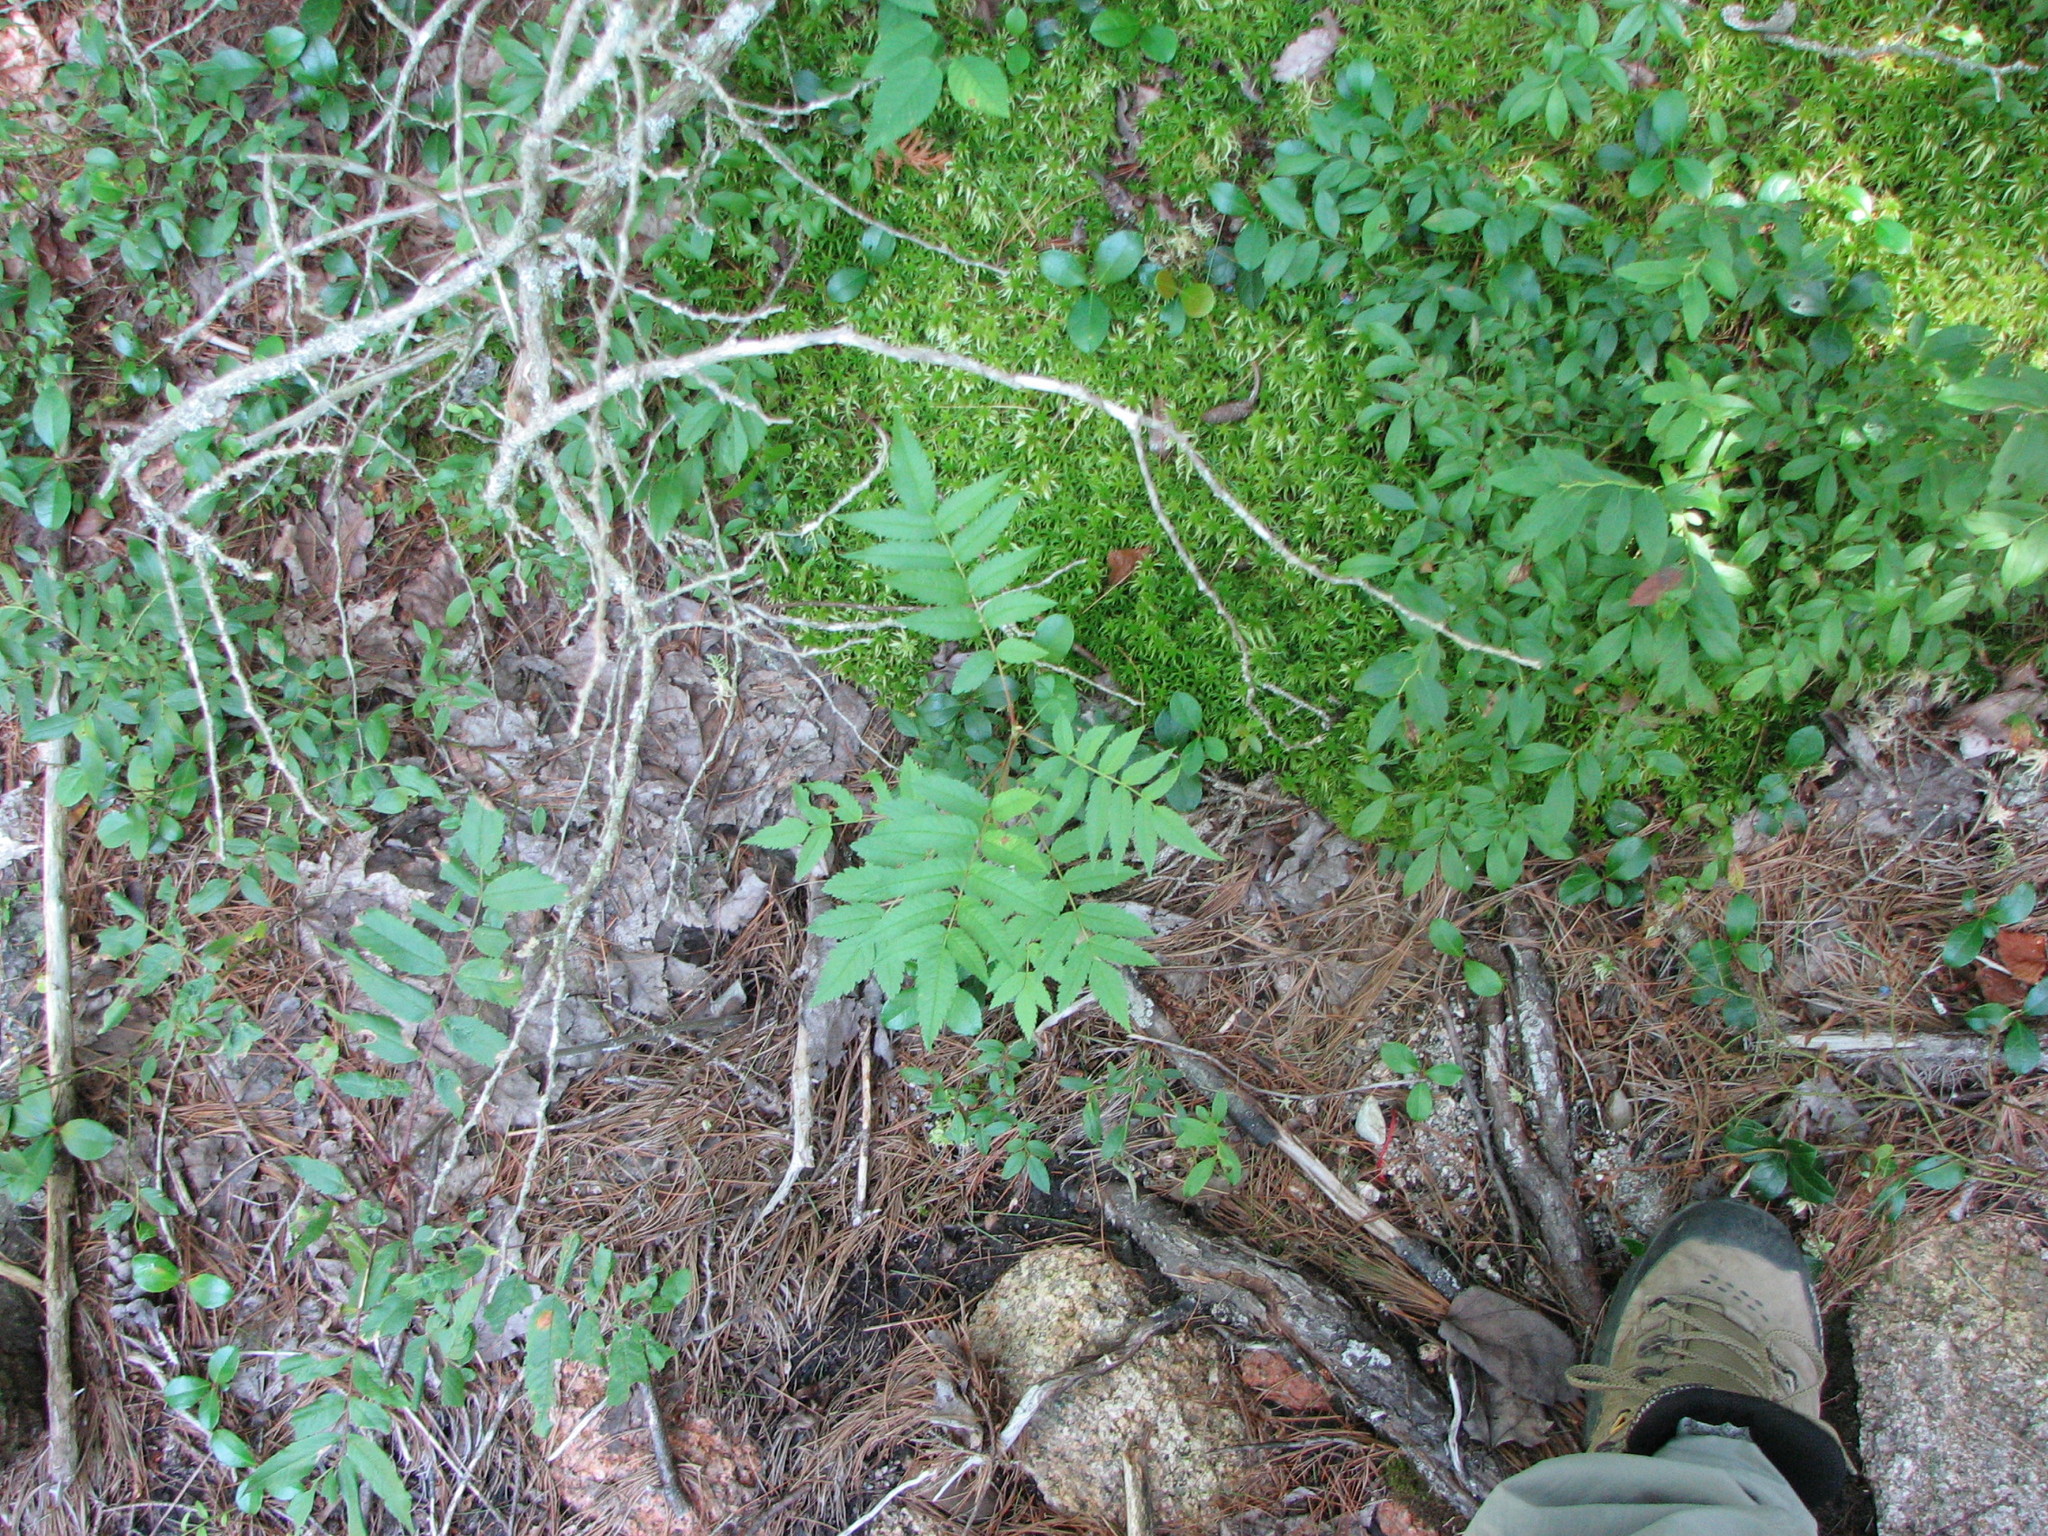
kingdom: Plantae
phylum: Tracheophyta
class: Magnoliopsida
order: Rosales
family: Rosaceae
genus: Sorbus
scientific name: Sorbus americana
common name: American mountain-ash
